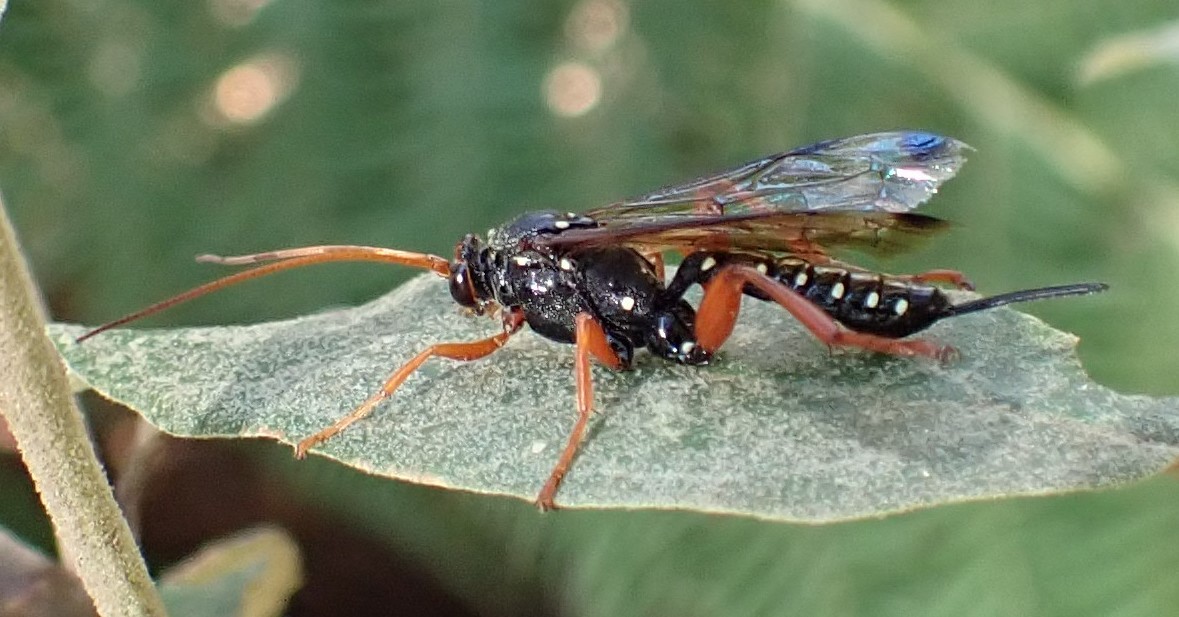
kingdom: Animalia
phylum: Arthropoda
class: Insecta
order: Hymenoptera
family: Ichneumonidae
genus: Echthromorpha
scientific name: Echthromorpha intricatoria
